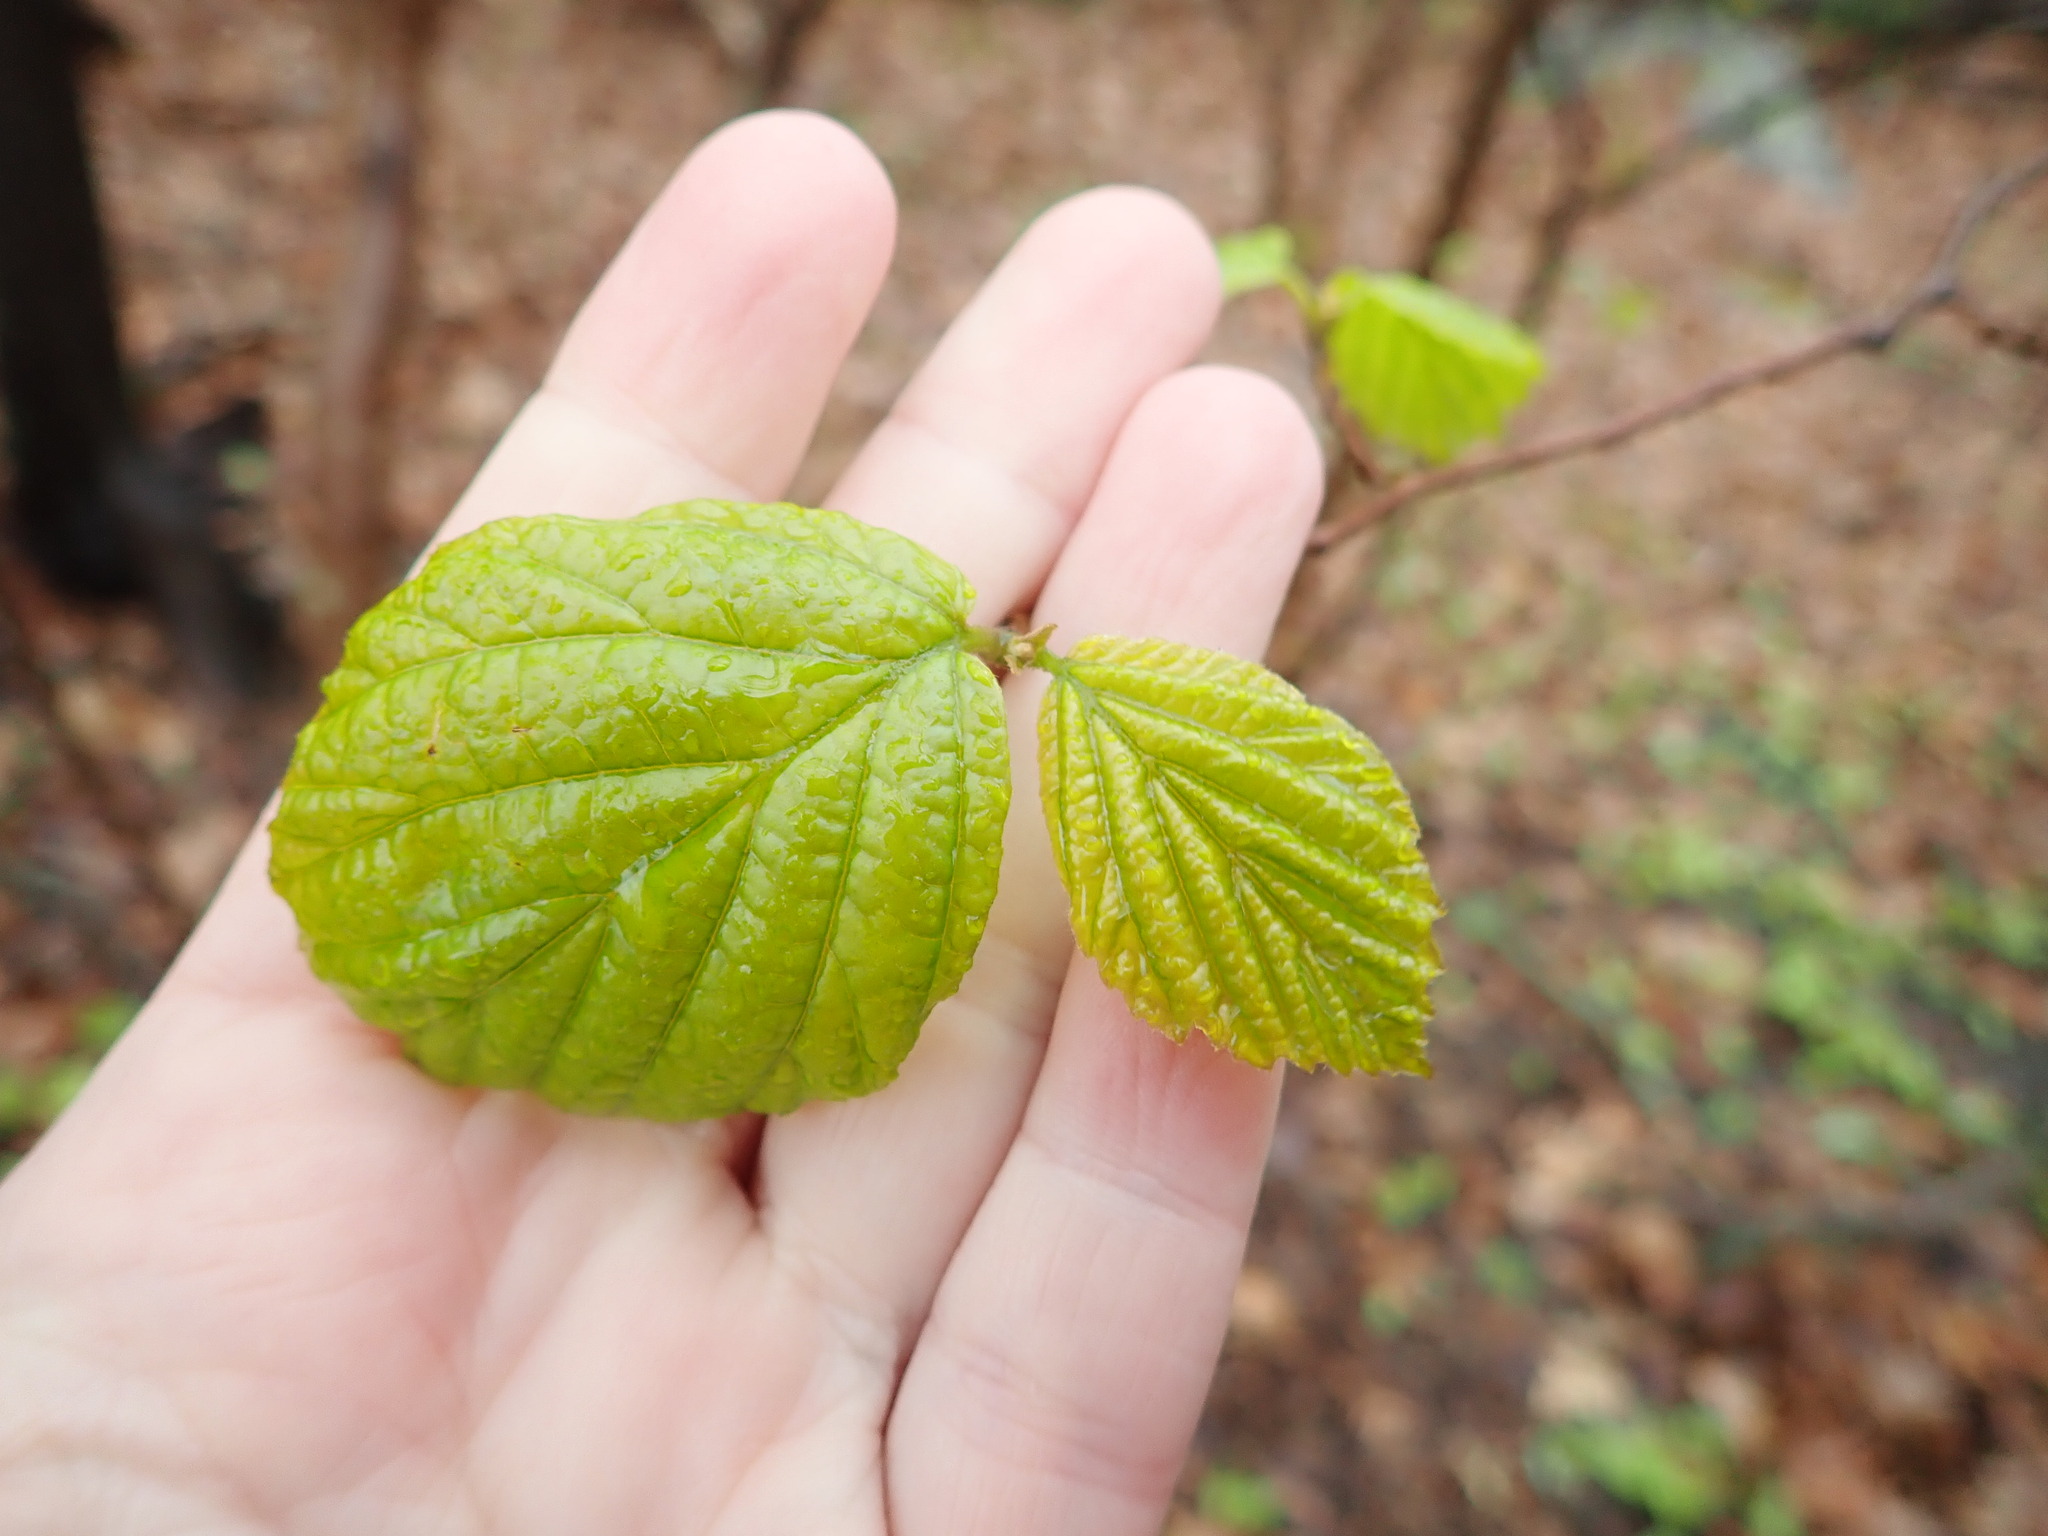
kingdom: Plantae
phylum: Tracheophyta
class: Magnoliopsida
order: Saxifragales
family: Hamamelidaceae
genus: Hamamelis
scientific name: Hamamelis virginiana
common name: Witch-hazel
